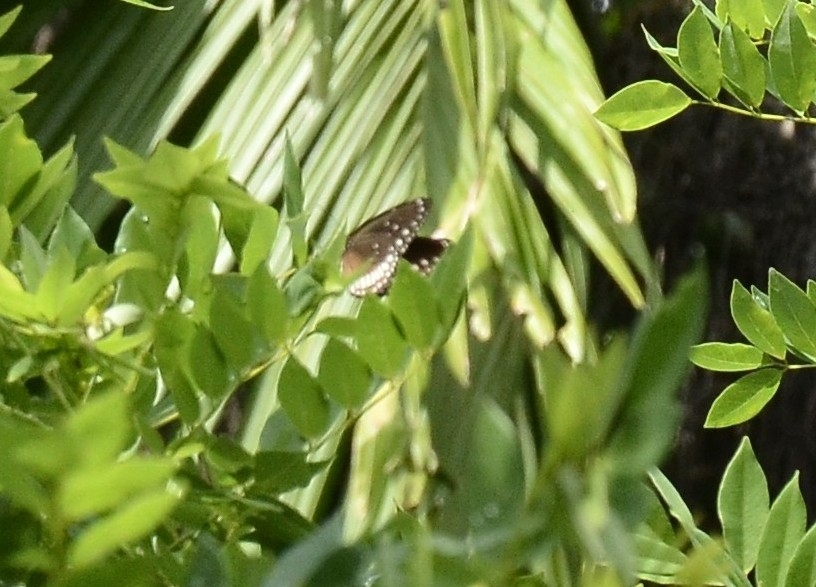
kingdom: Animalia
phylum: Arthropoda
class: Insecta
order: Lepidoptera
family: Nymphalidae
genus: Euploea
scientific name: Euploea core
